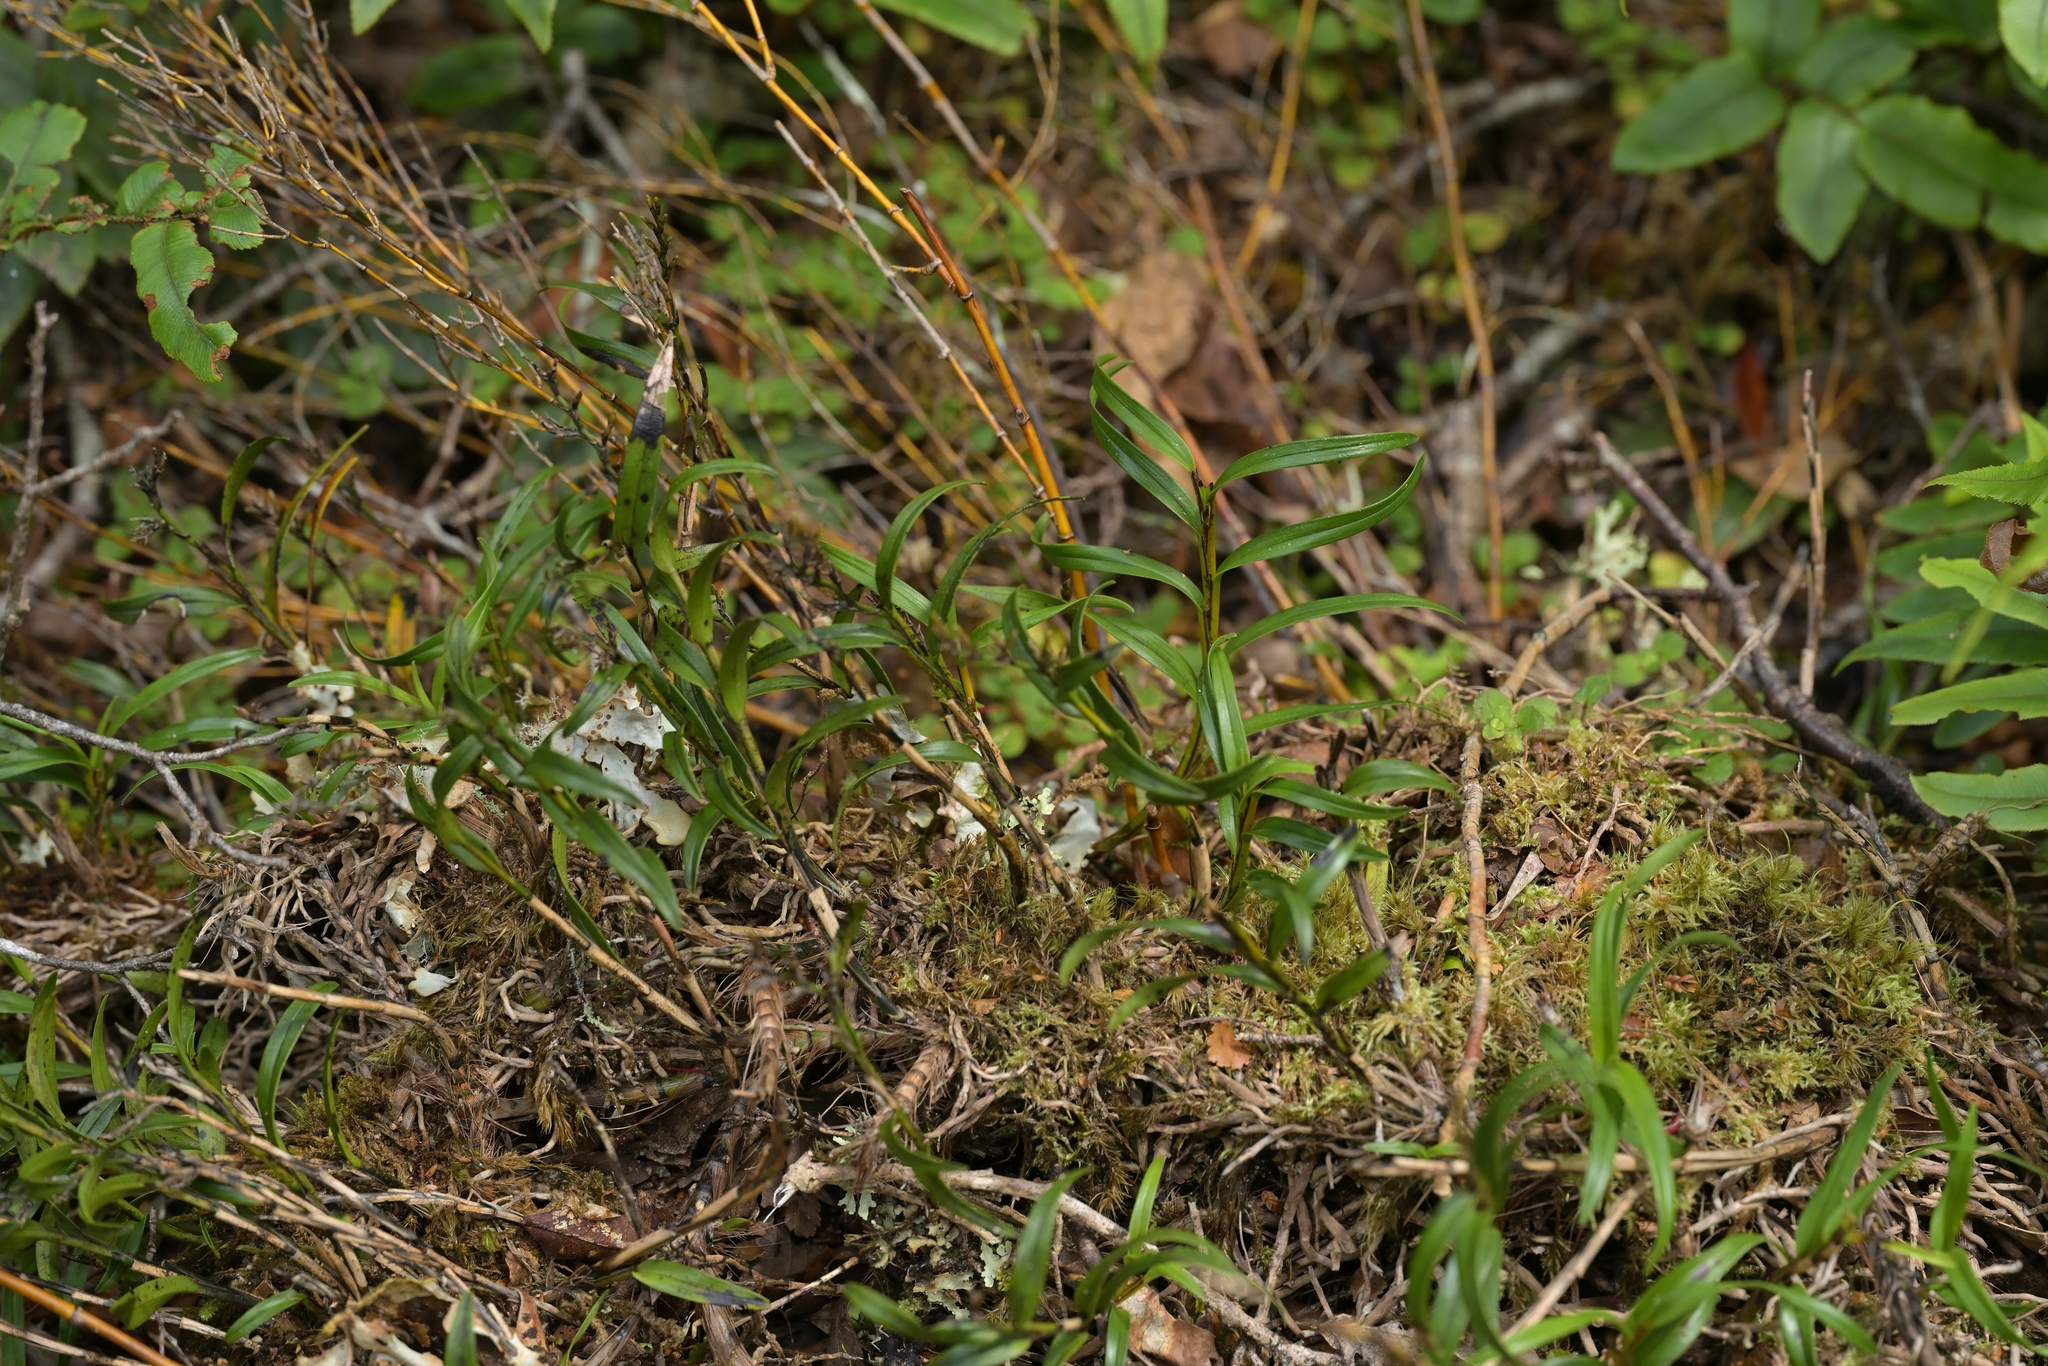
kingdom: Plantae
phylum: Tracheophyta
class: Liliopsida
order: Asparagales
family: Orchidaceae
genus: Earina
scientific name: Earina autumnalis
